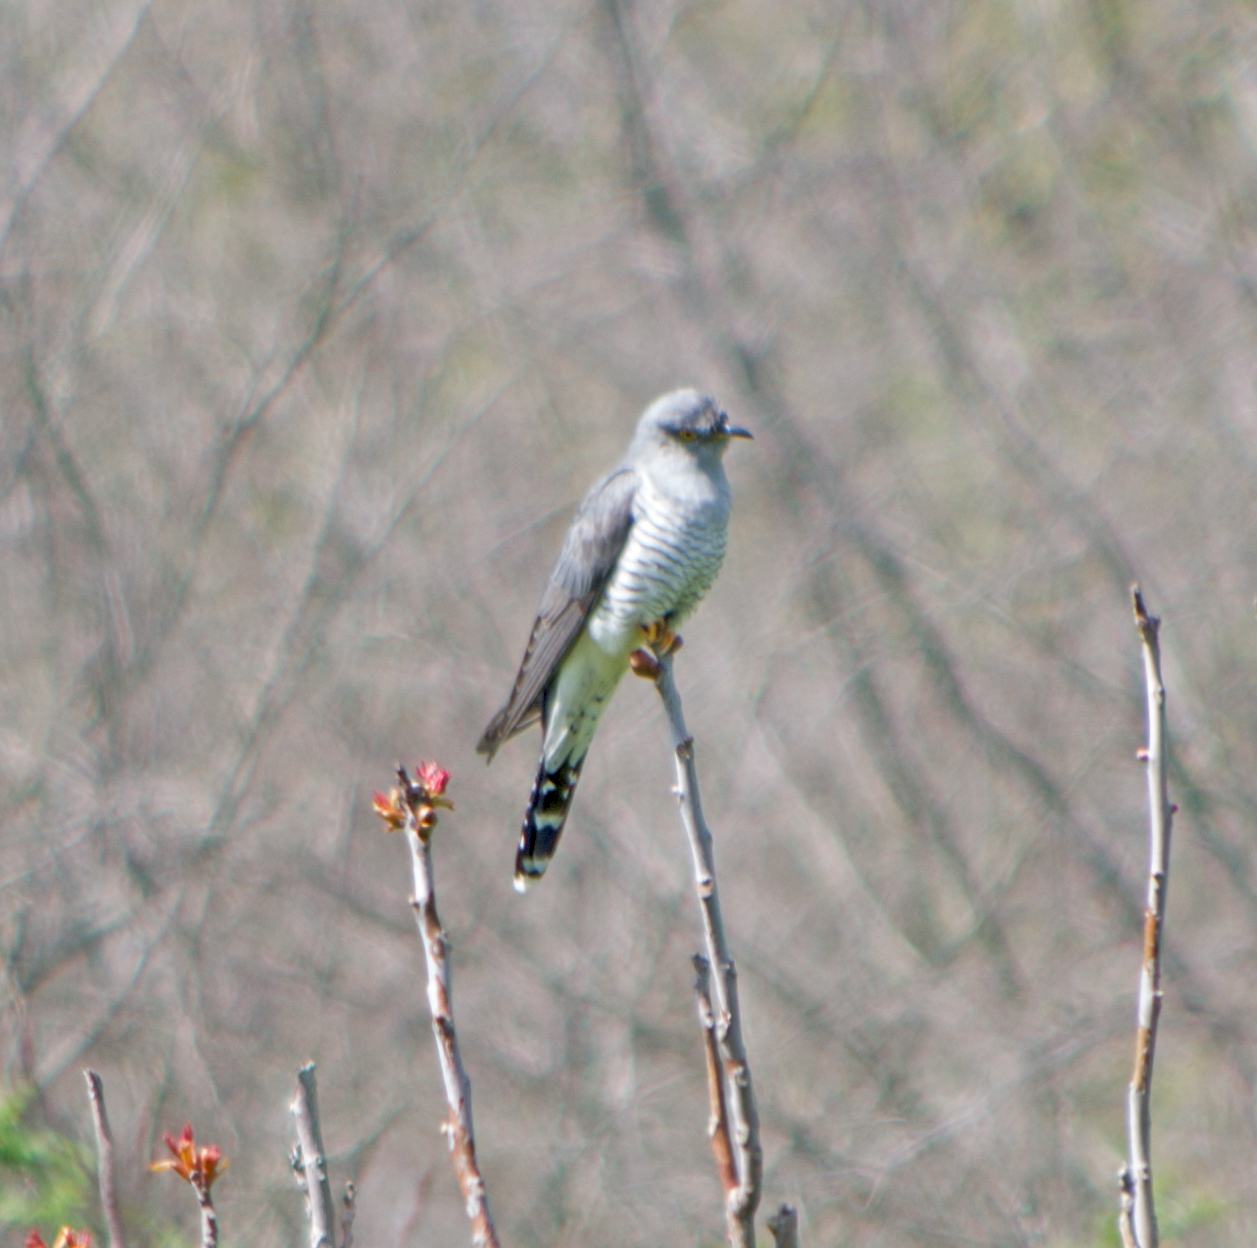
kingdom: Animalia
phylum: Chordata
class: Aves
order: Cuculiformes
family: Cuculidae
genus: Cuculus
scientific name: Cuculus canorus
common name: Common cuckoo
